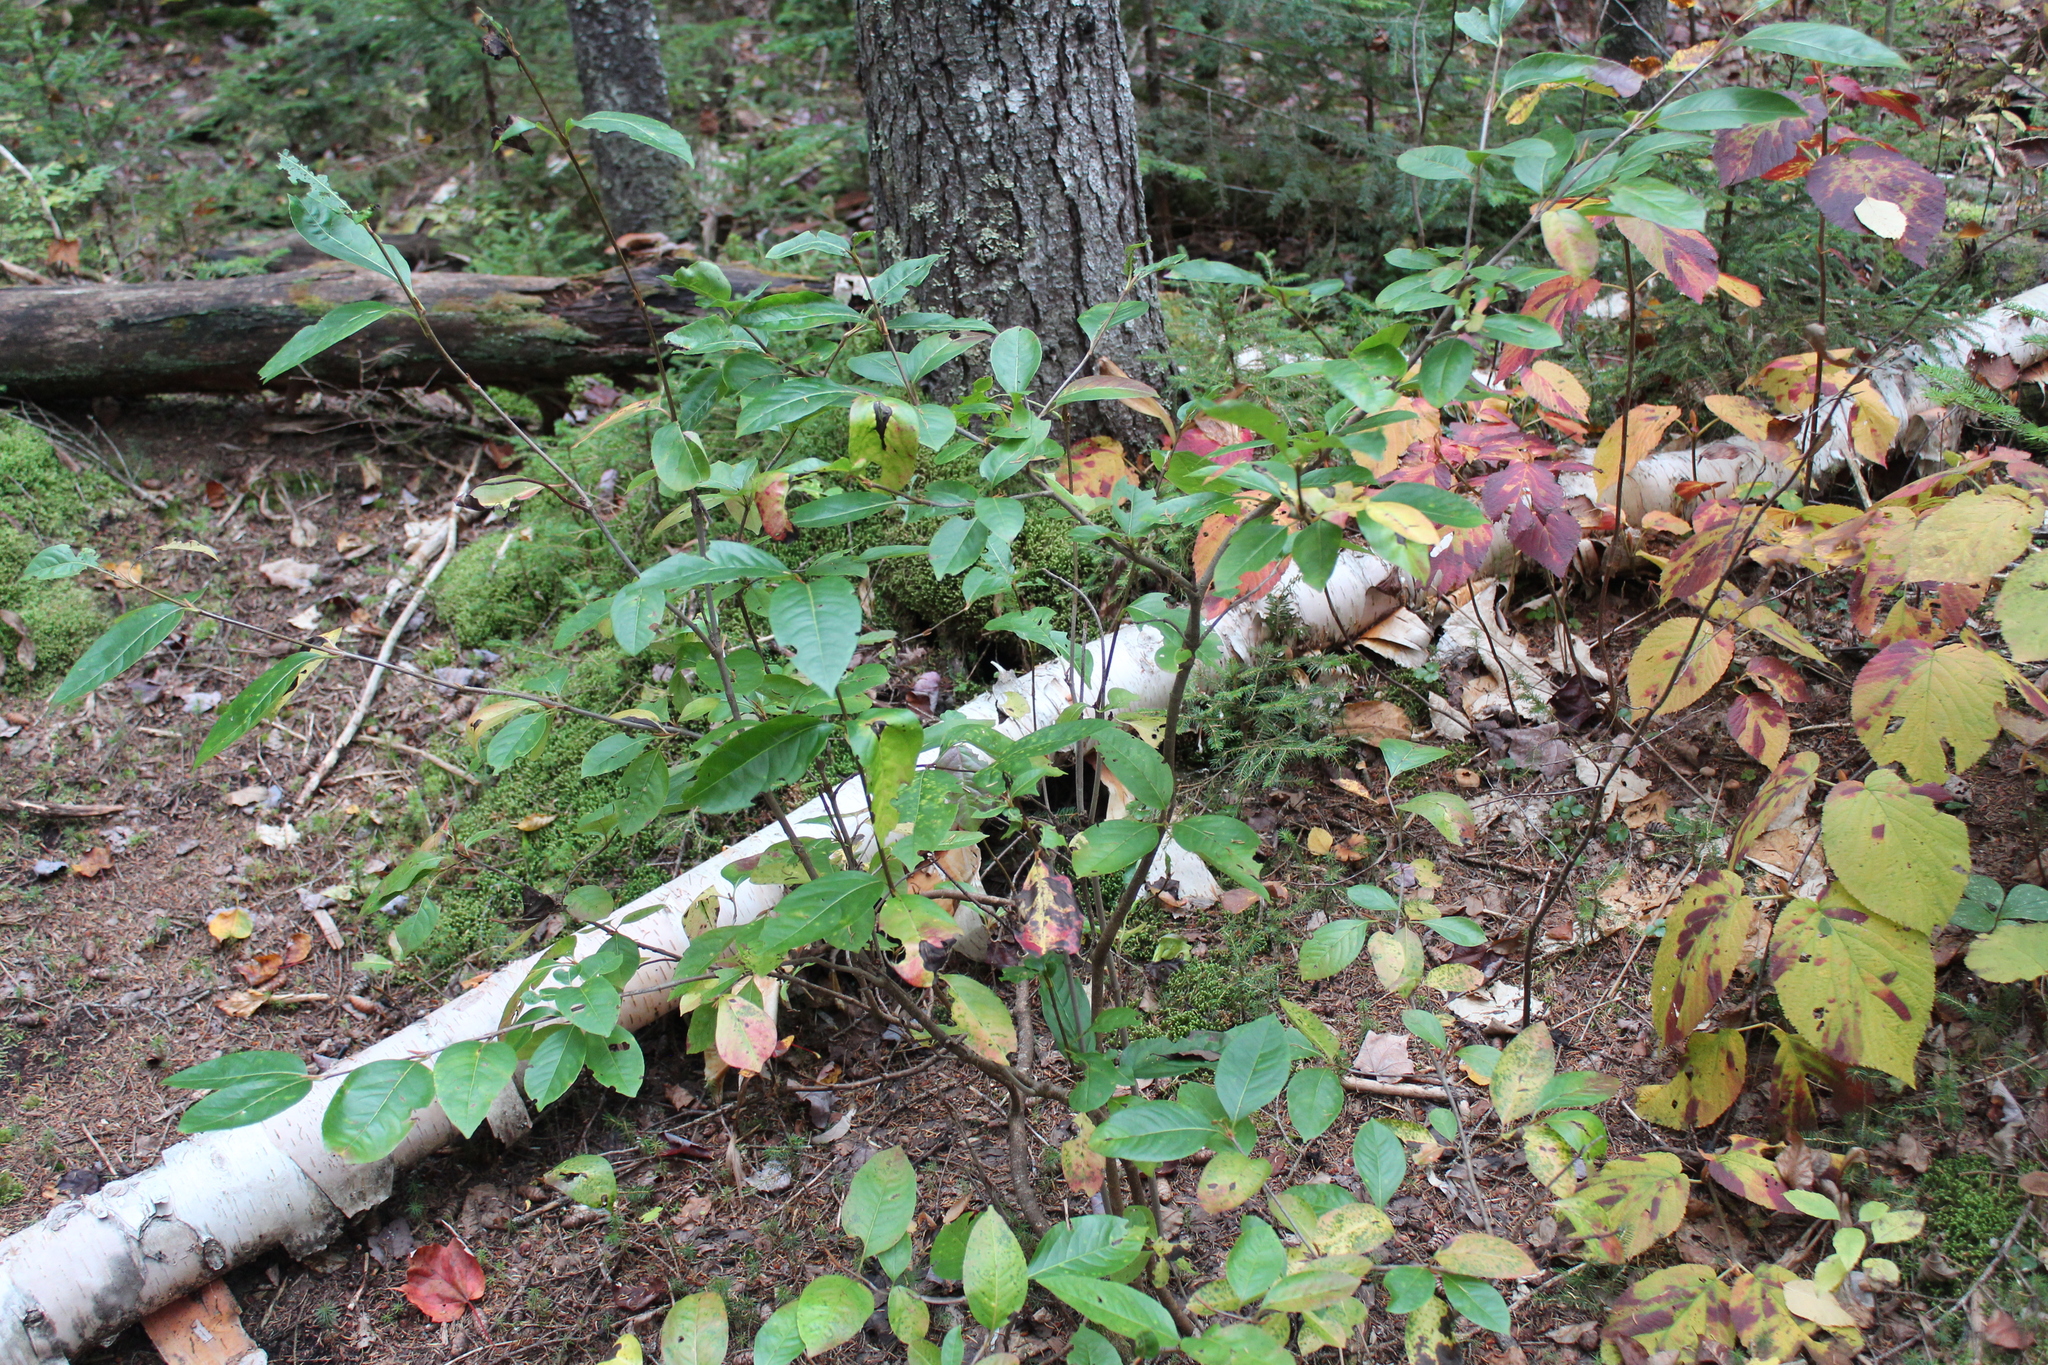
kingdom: Plantae
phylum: Tracheophyta
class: Magnoliopsida
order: Dipsacales
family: Viburnaceae
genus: Viburnum
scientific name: Viburnum cassinoides
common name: Swamp haw
